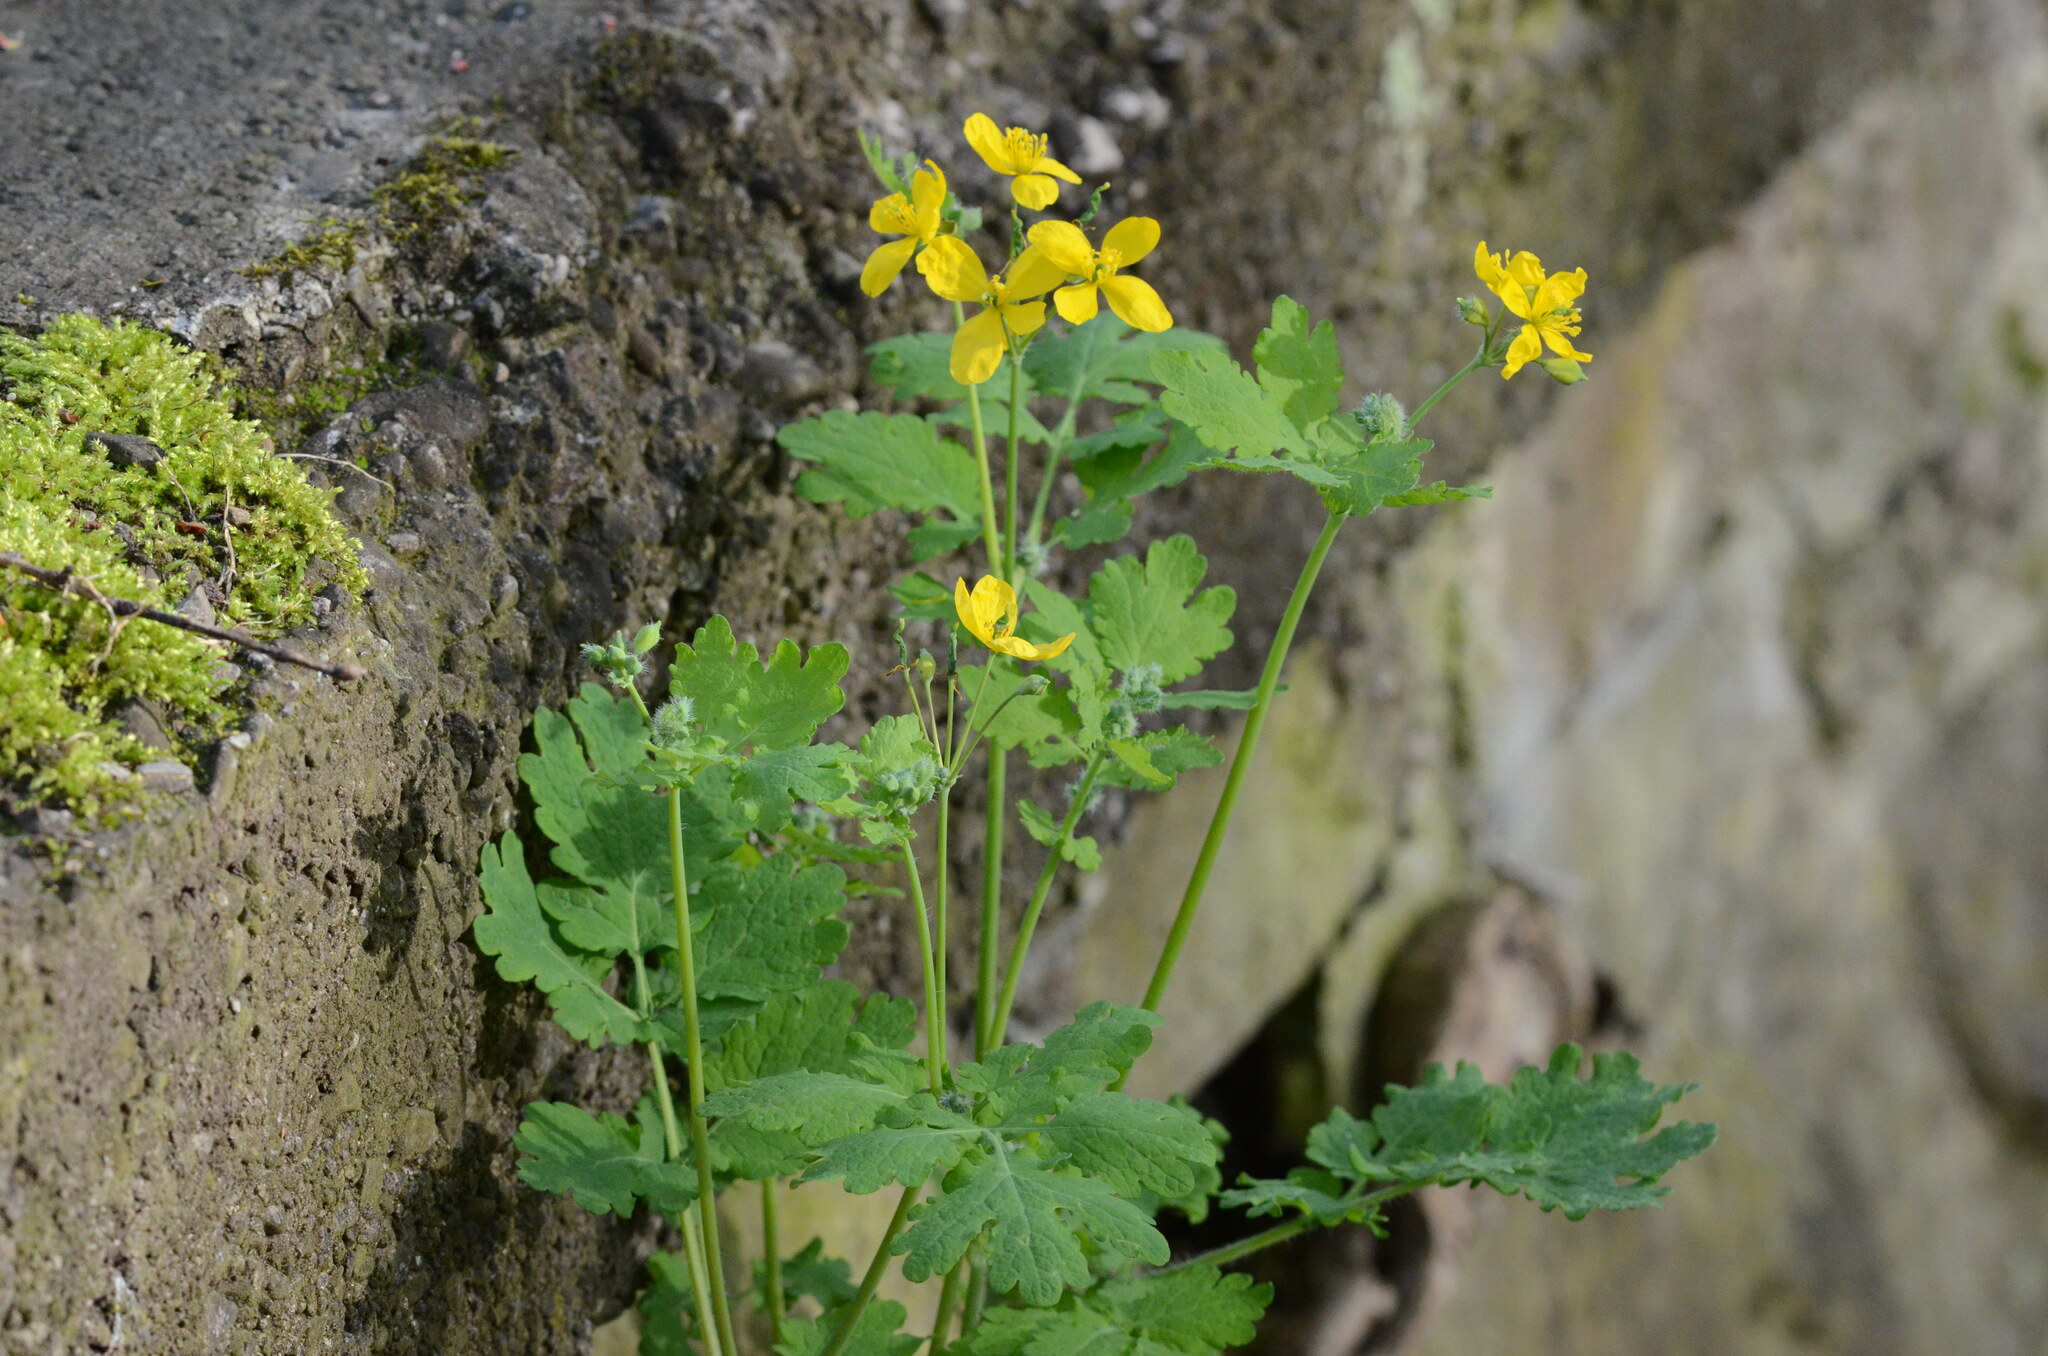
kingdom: Plantae
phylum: Tracheophyta
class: Magnoliopsida
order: Ranunculales
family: Papaveraceae
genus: Chelidonium
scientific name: Chelidonium majus
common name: Greater celandine
